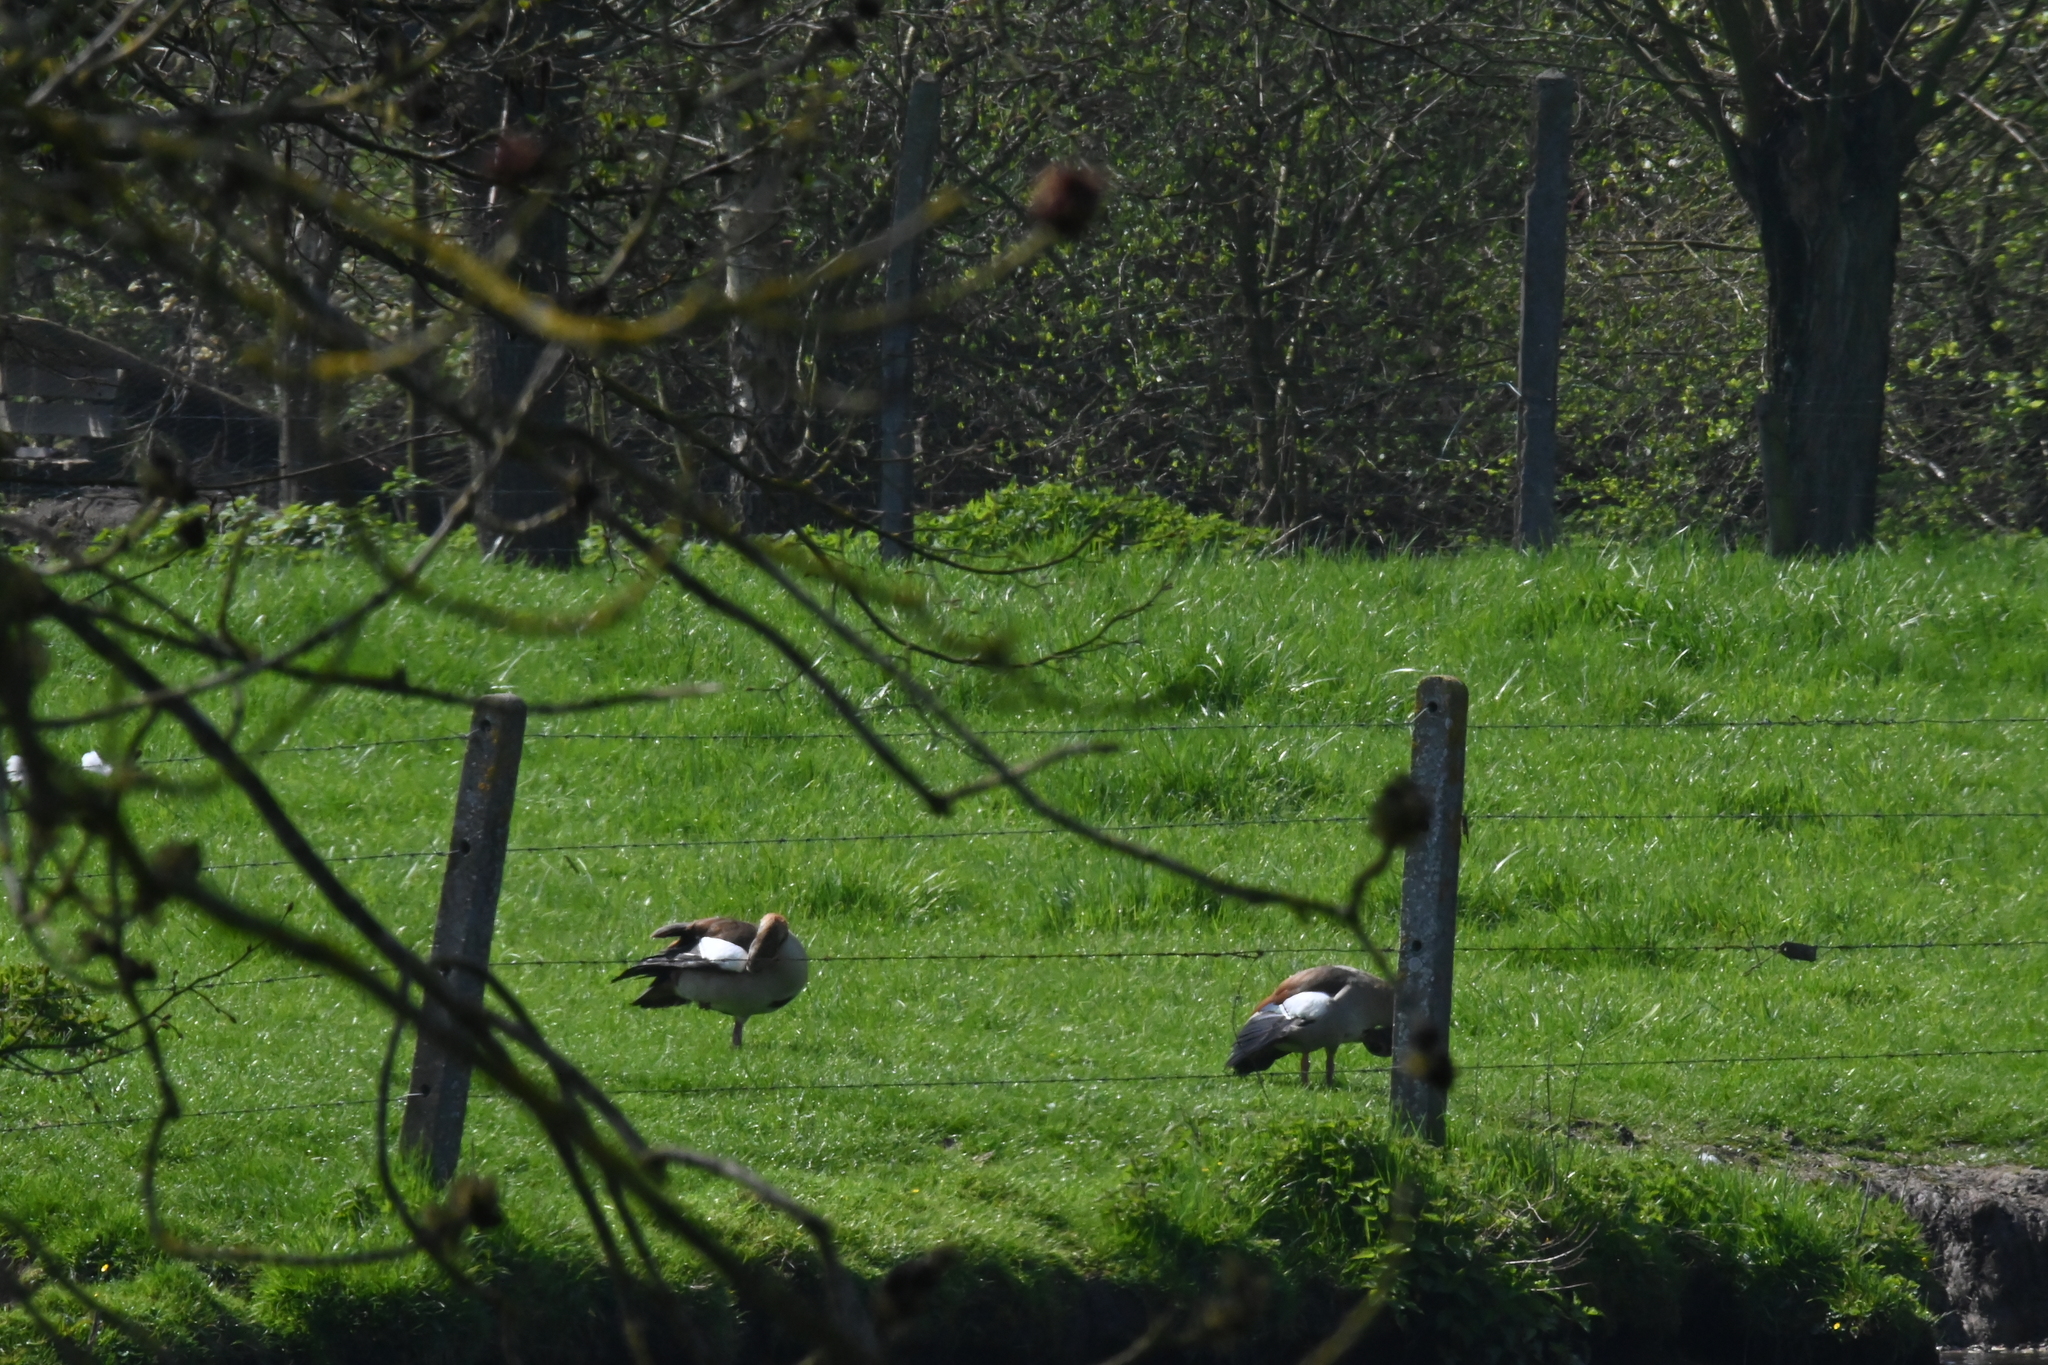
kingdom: Animalia
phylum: Chordata
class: Aves
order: Anseriformes
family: Anatidae
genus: Alopochen
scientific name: Alopochen aegyptiaca
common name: Egyptian goose
